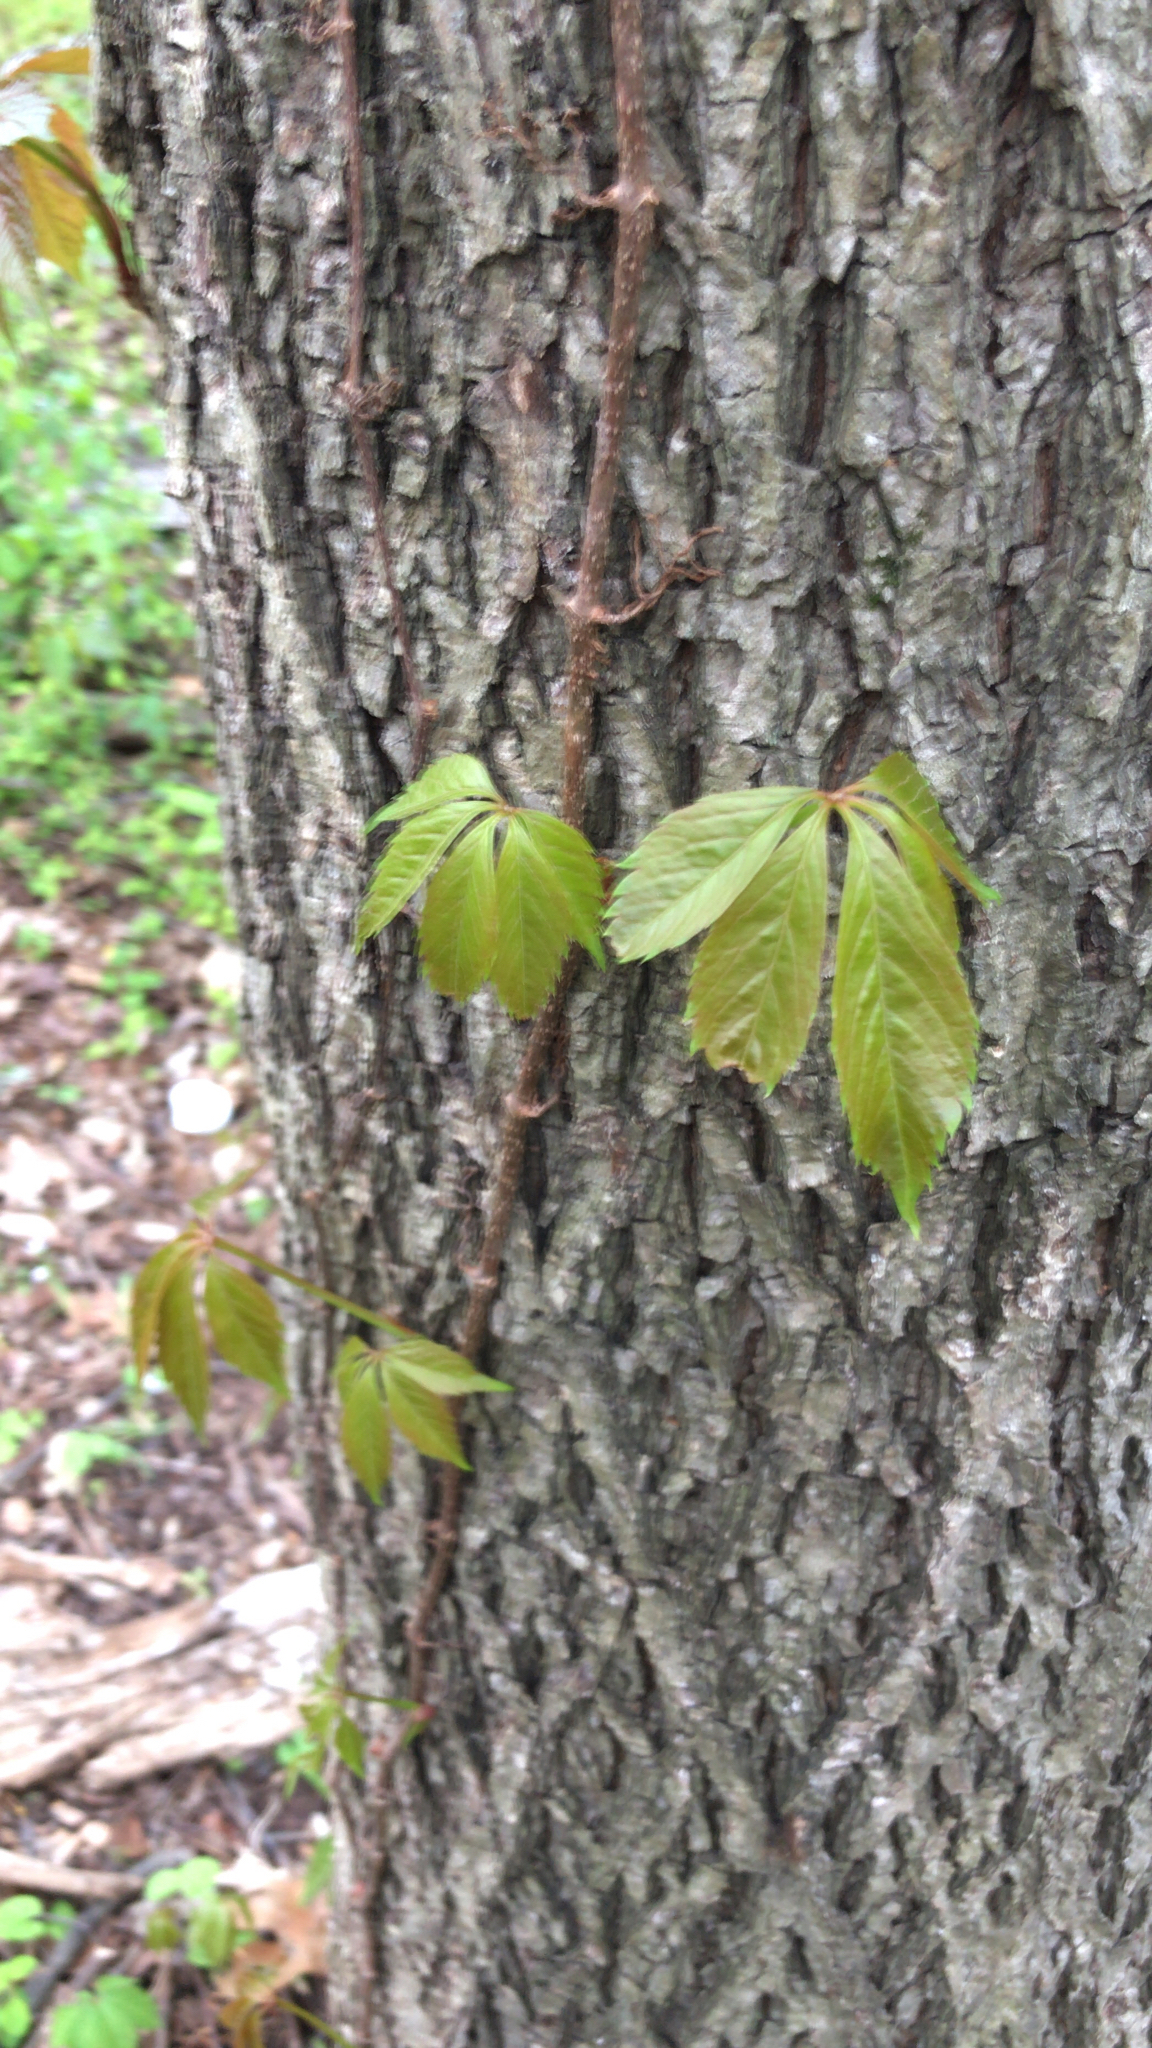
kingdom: Plantae
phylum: Tracheophyta
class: Magnoliopsida
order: Vitales
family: Vitaceae
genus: Parthenocissus
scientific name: Parthenocissus quinquefolia
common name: Virginia-creeper
